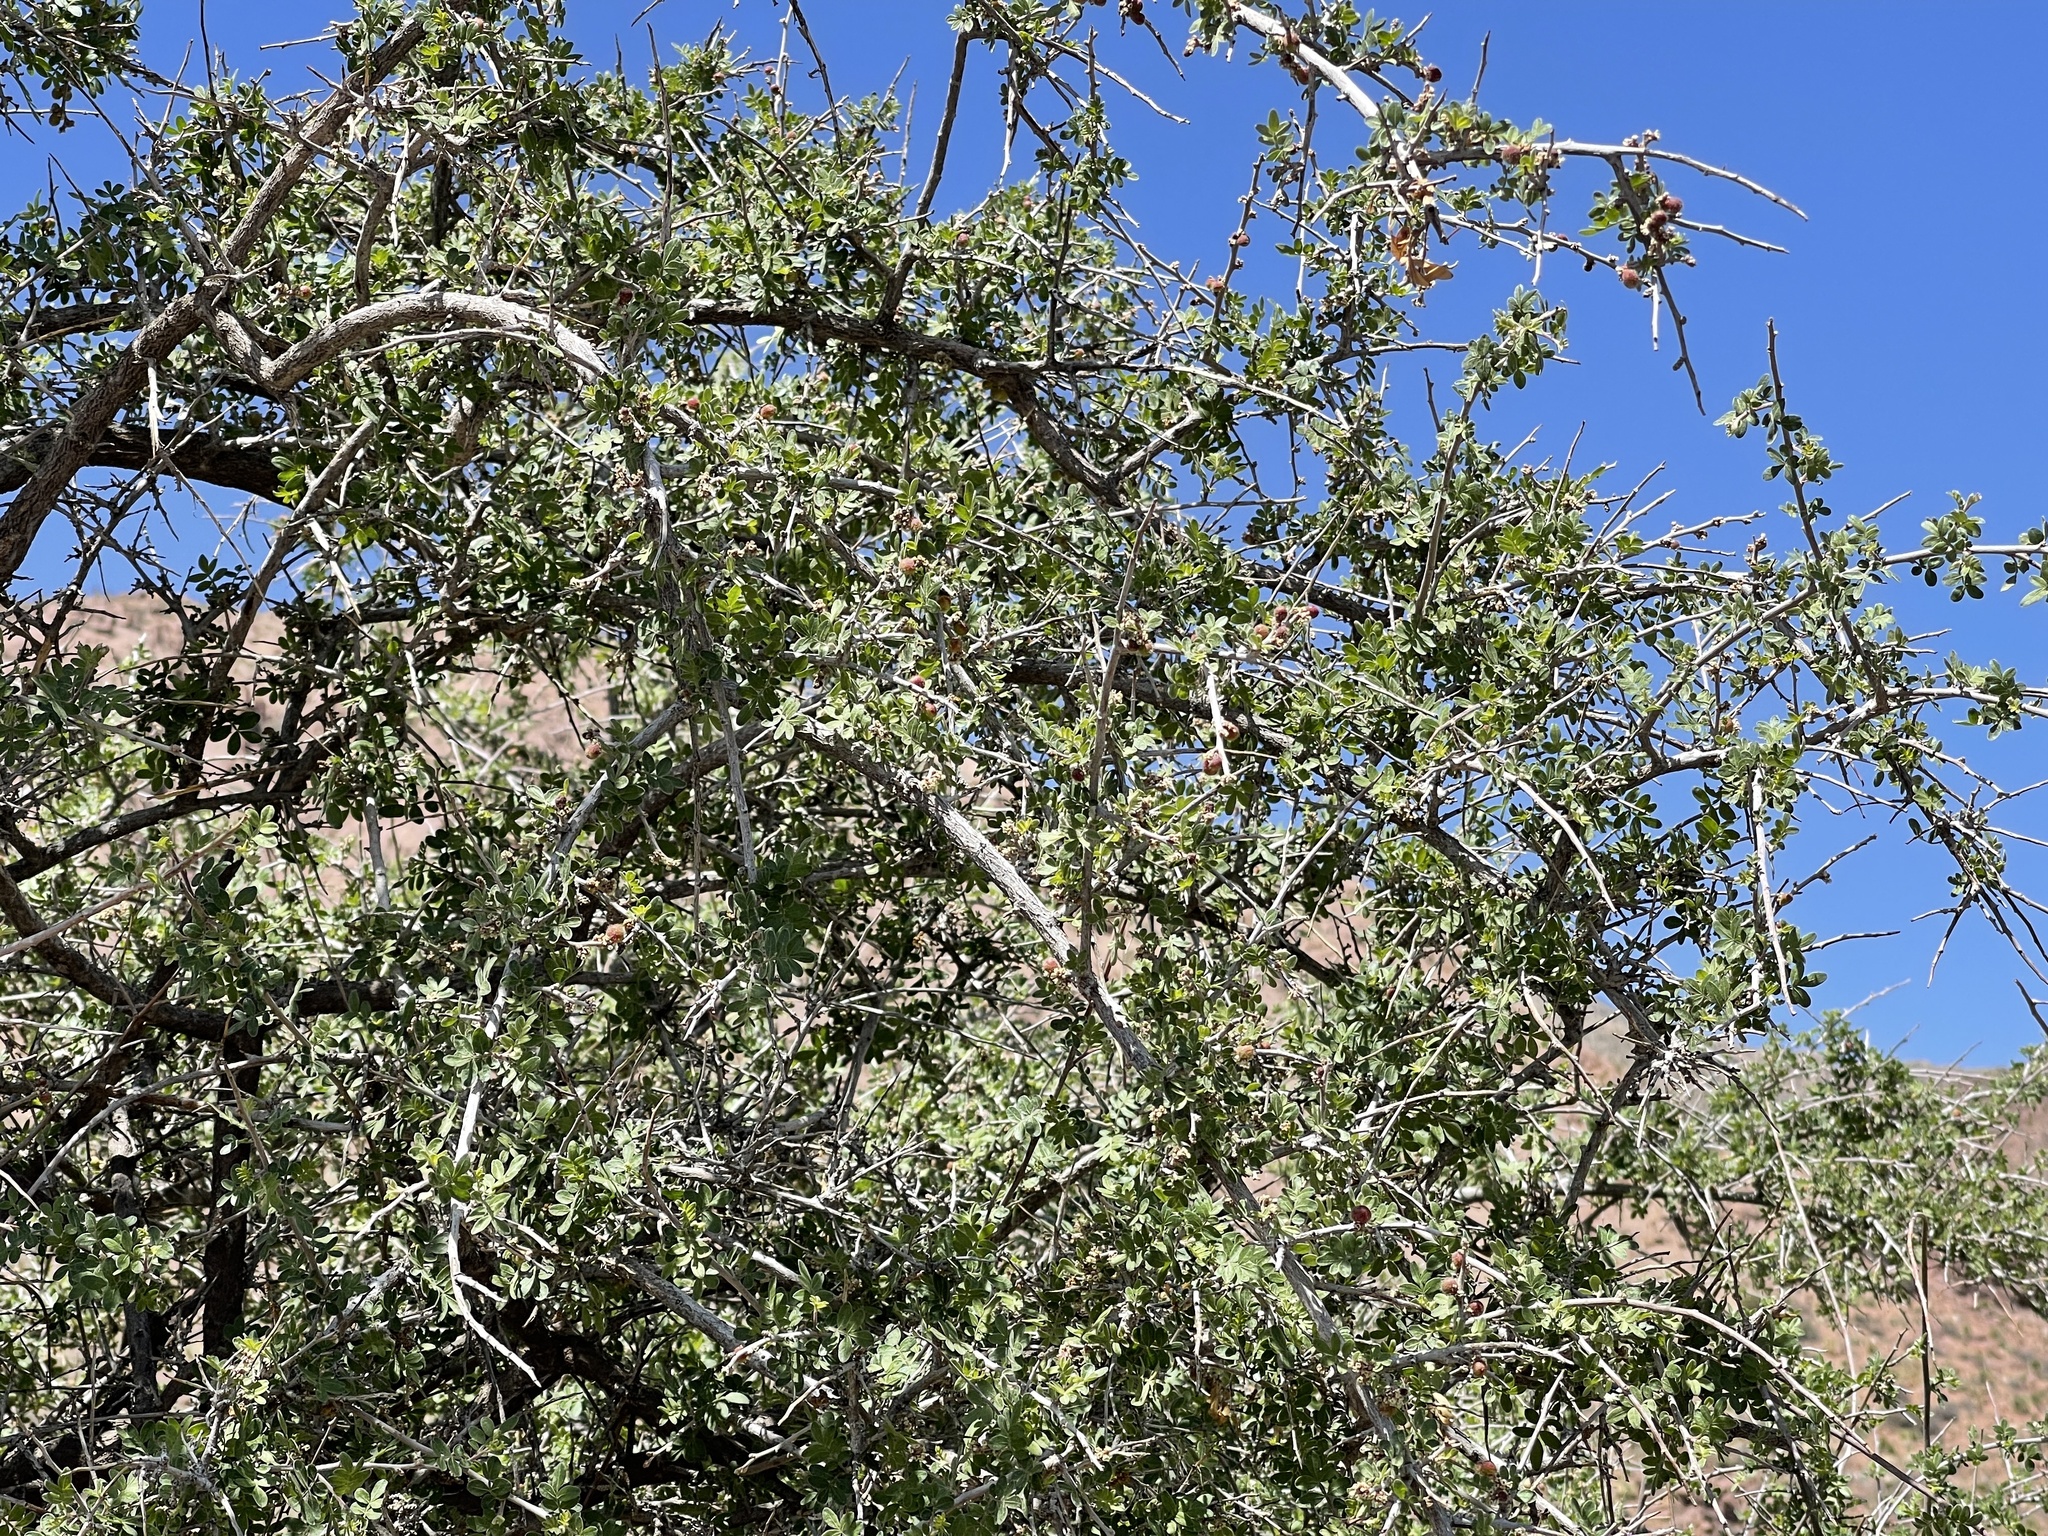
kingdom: Plantae
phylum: Tracheophyta
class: Magnoliopsida
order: Sapindales
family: Anacardiaceae
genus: Rhus
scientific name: Rhus microphylla
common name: Desert sumac
